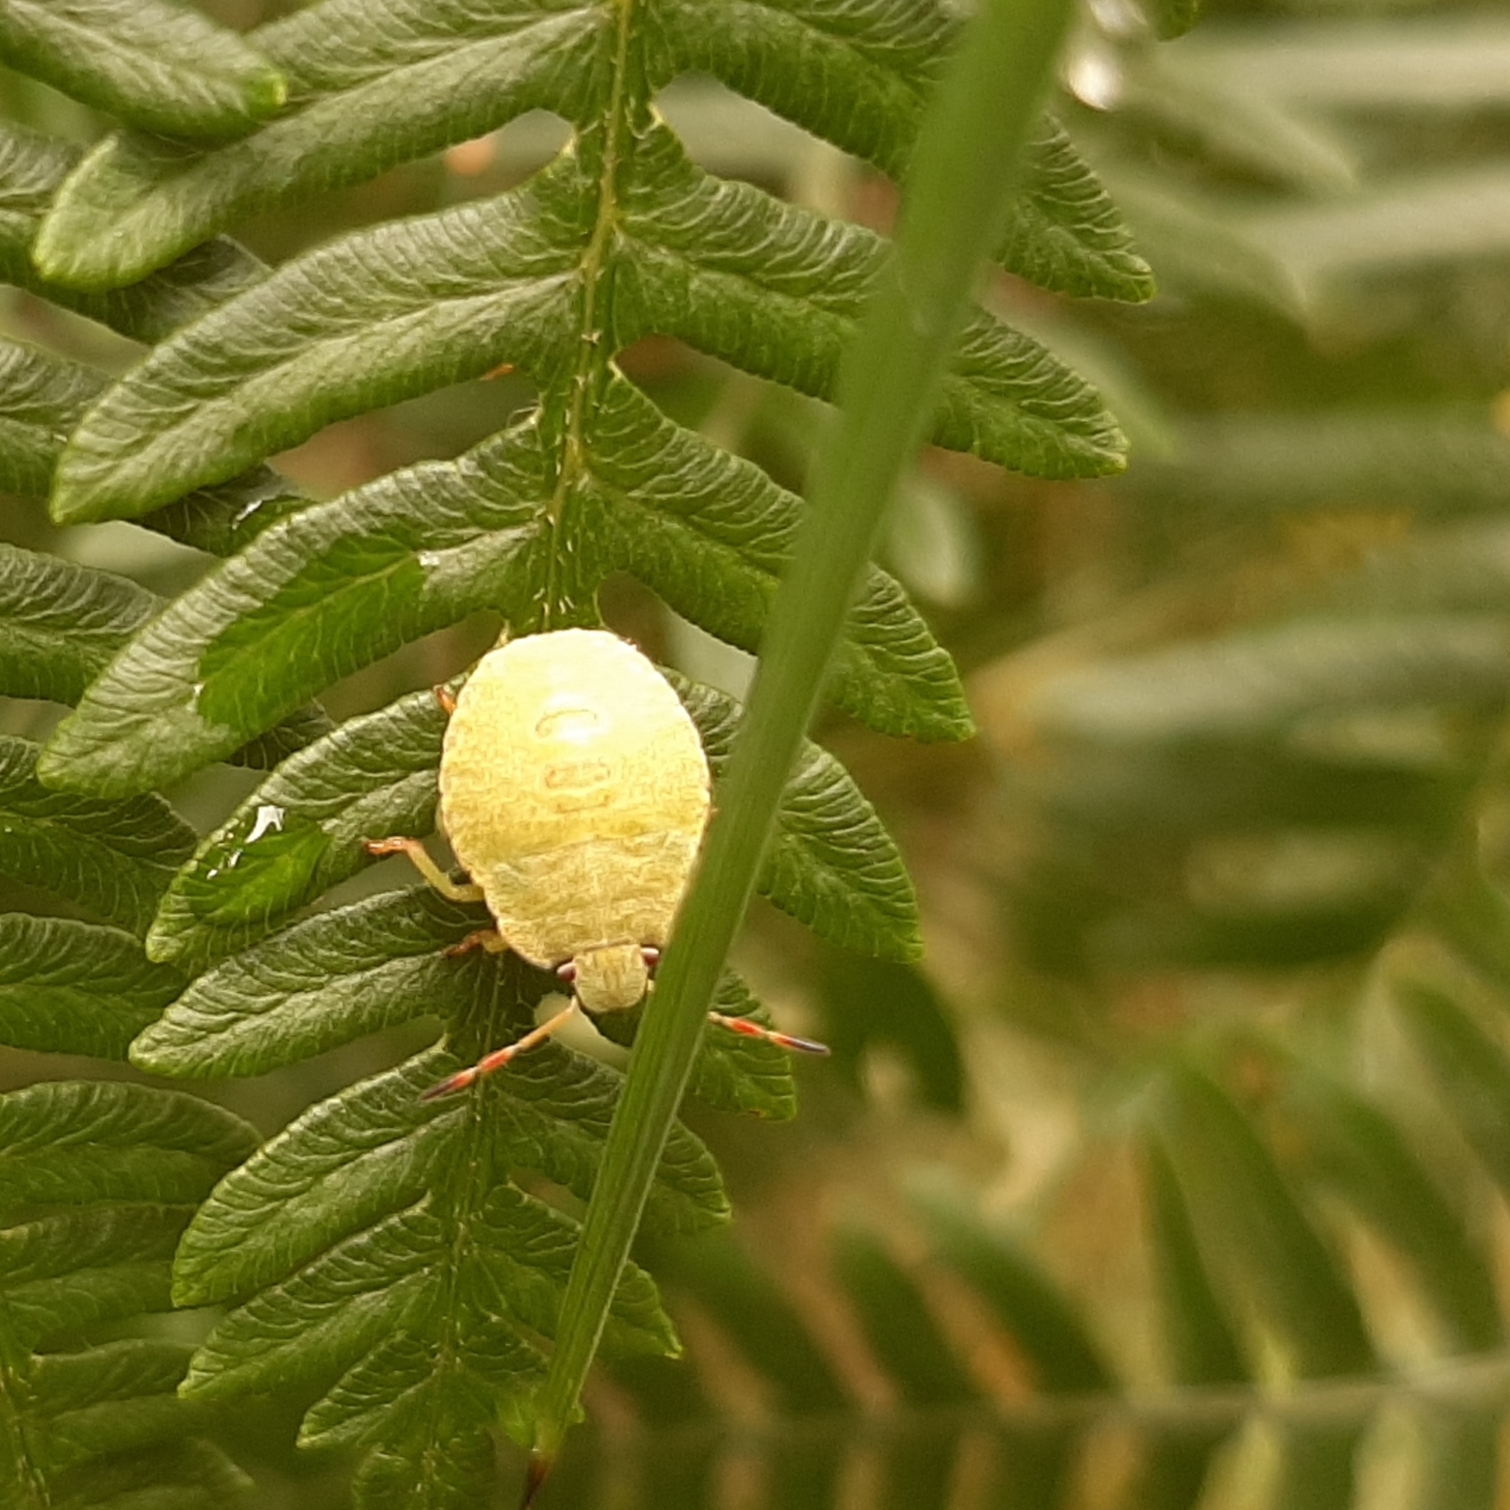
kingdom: Animalia
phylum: Arthropoda
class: Insecta
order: Hemiptera
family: Pentatomidae
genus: Palomena
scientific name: Palomena prasina
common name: Green shieldbug
